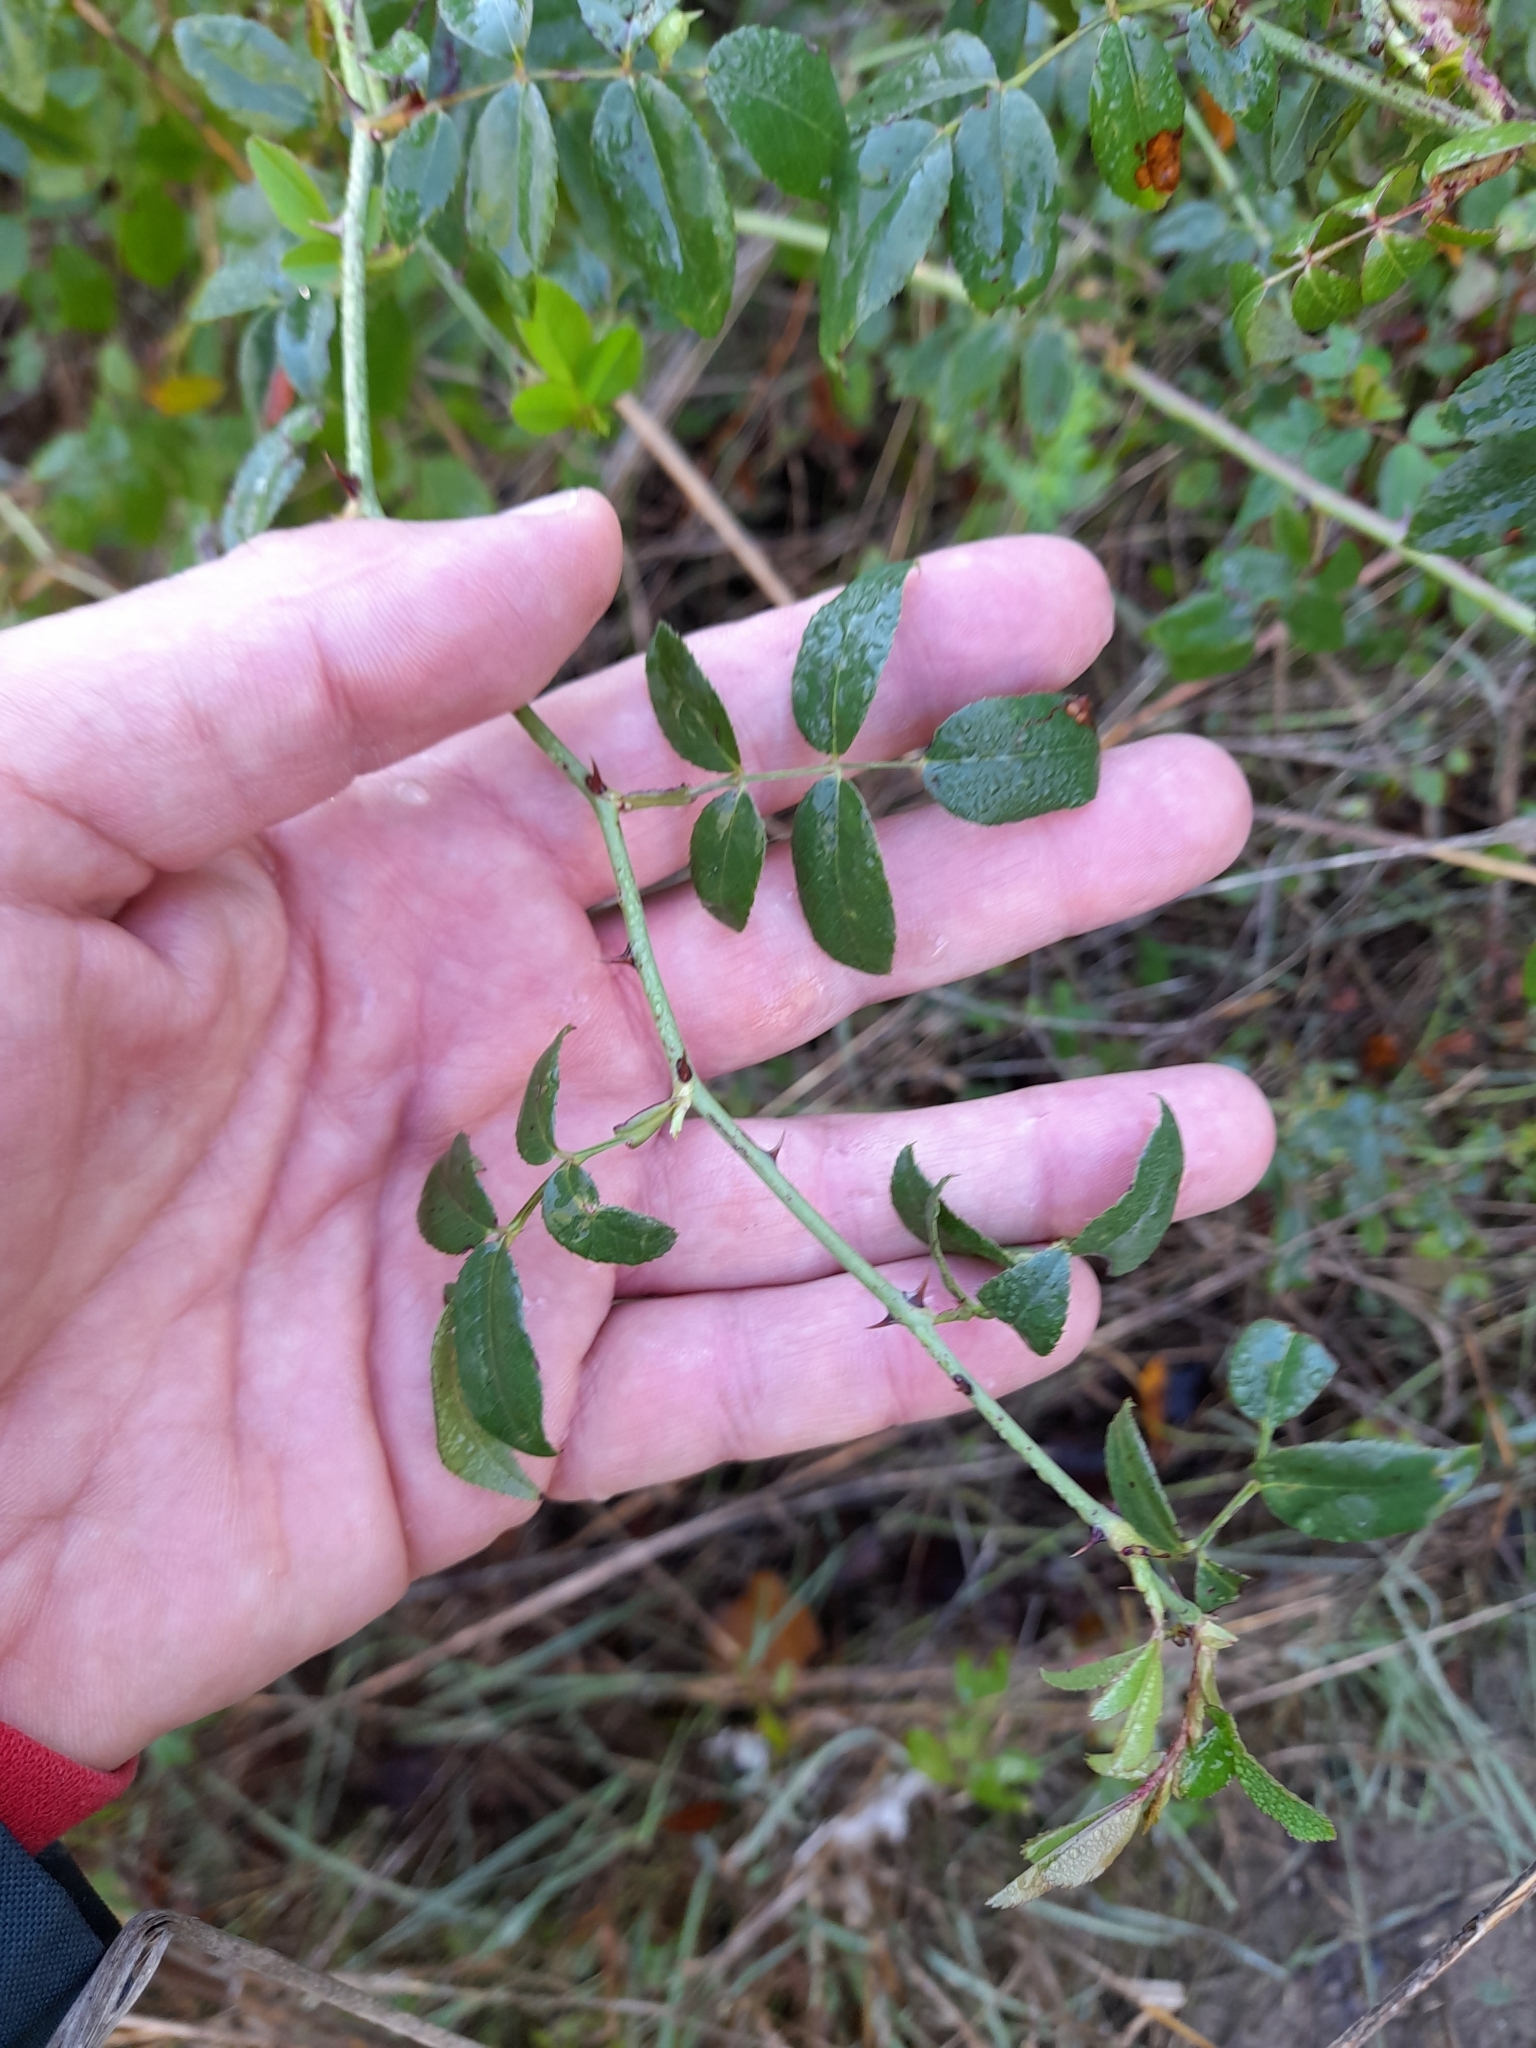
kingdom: Plantae
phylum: Tracheophyta
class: Magnoliopsida
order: Rosales
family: Rosaceae
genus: Rosa
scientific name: Rosa sempervirens
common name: Evergreen rose
